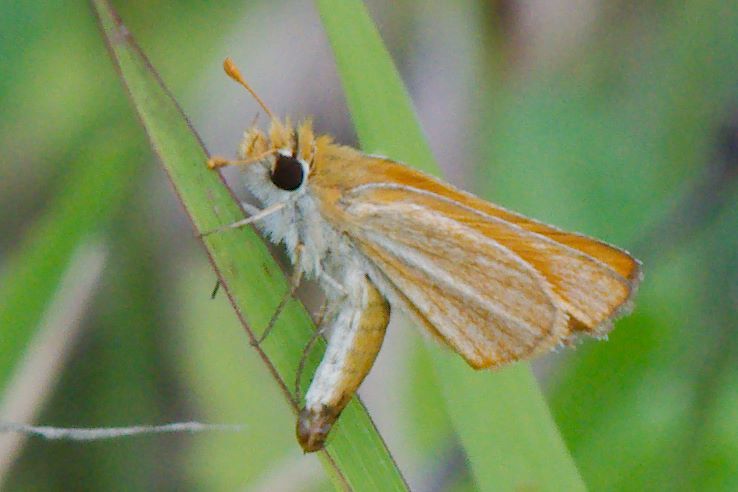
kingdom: Animalia
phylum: Arthropoda
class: Insecta
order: Lepidoptera
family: Hesperiidae
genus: Copaeodes
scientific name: Copaeodes minima
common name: Southern skipperling
